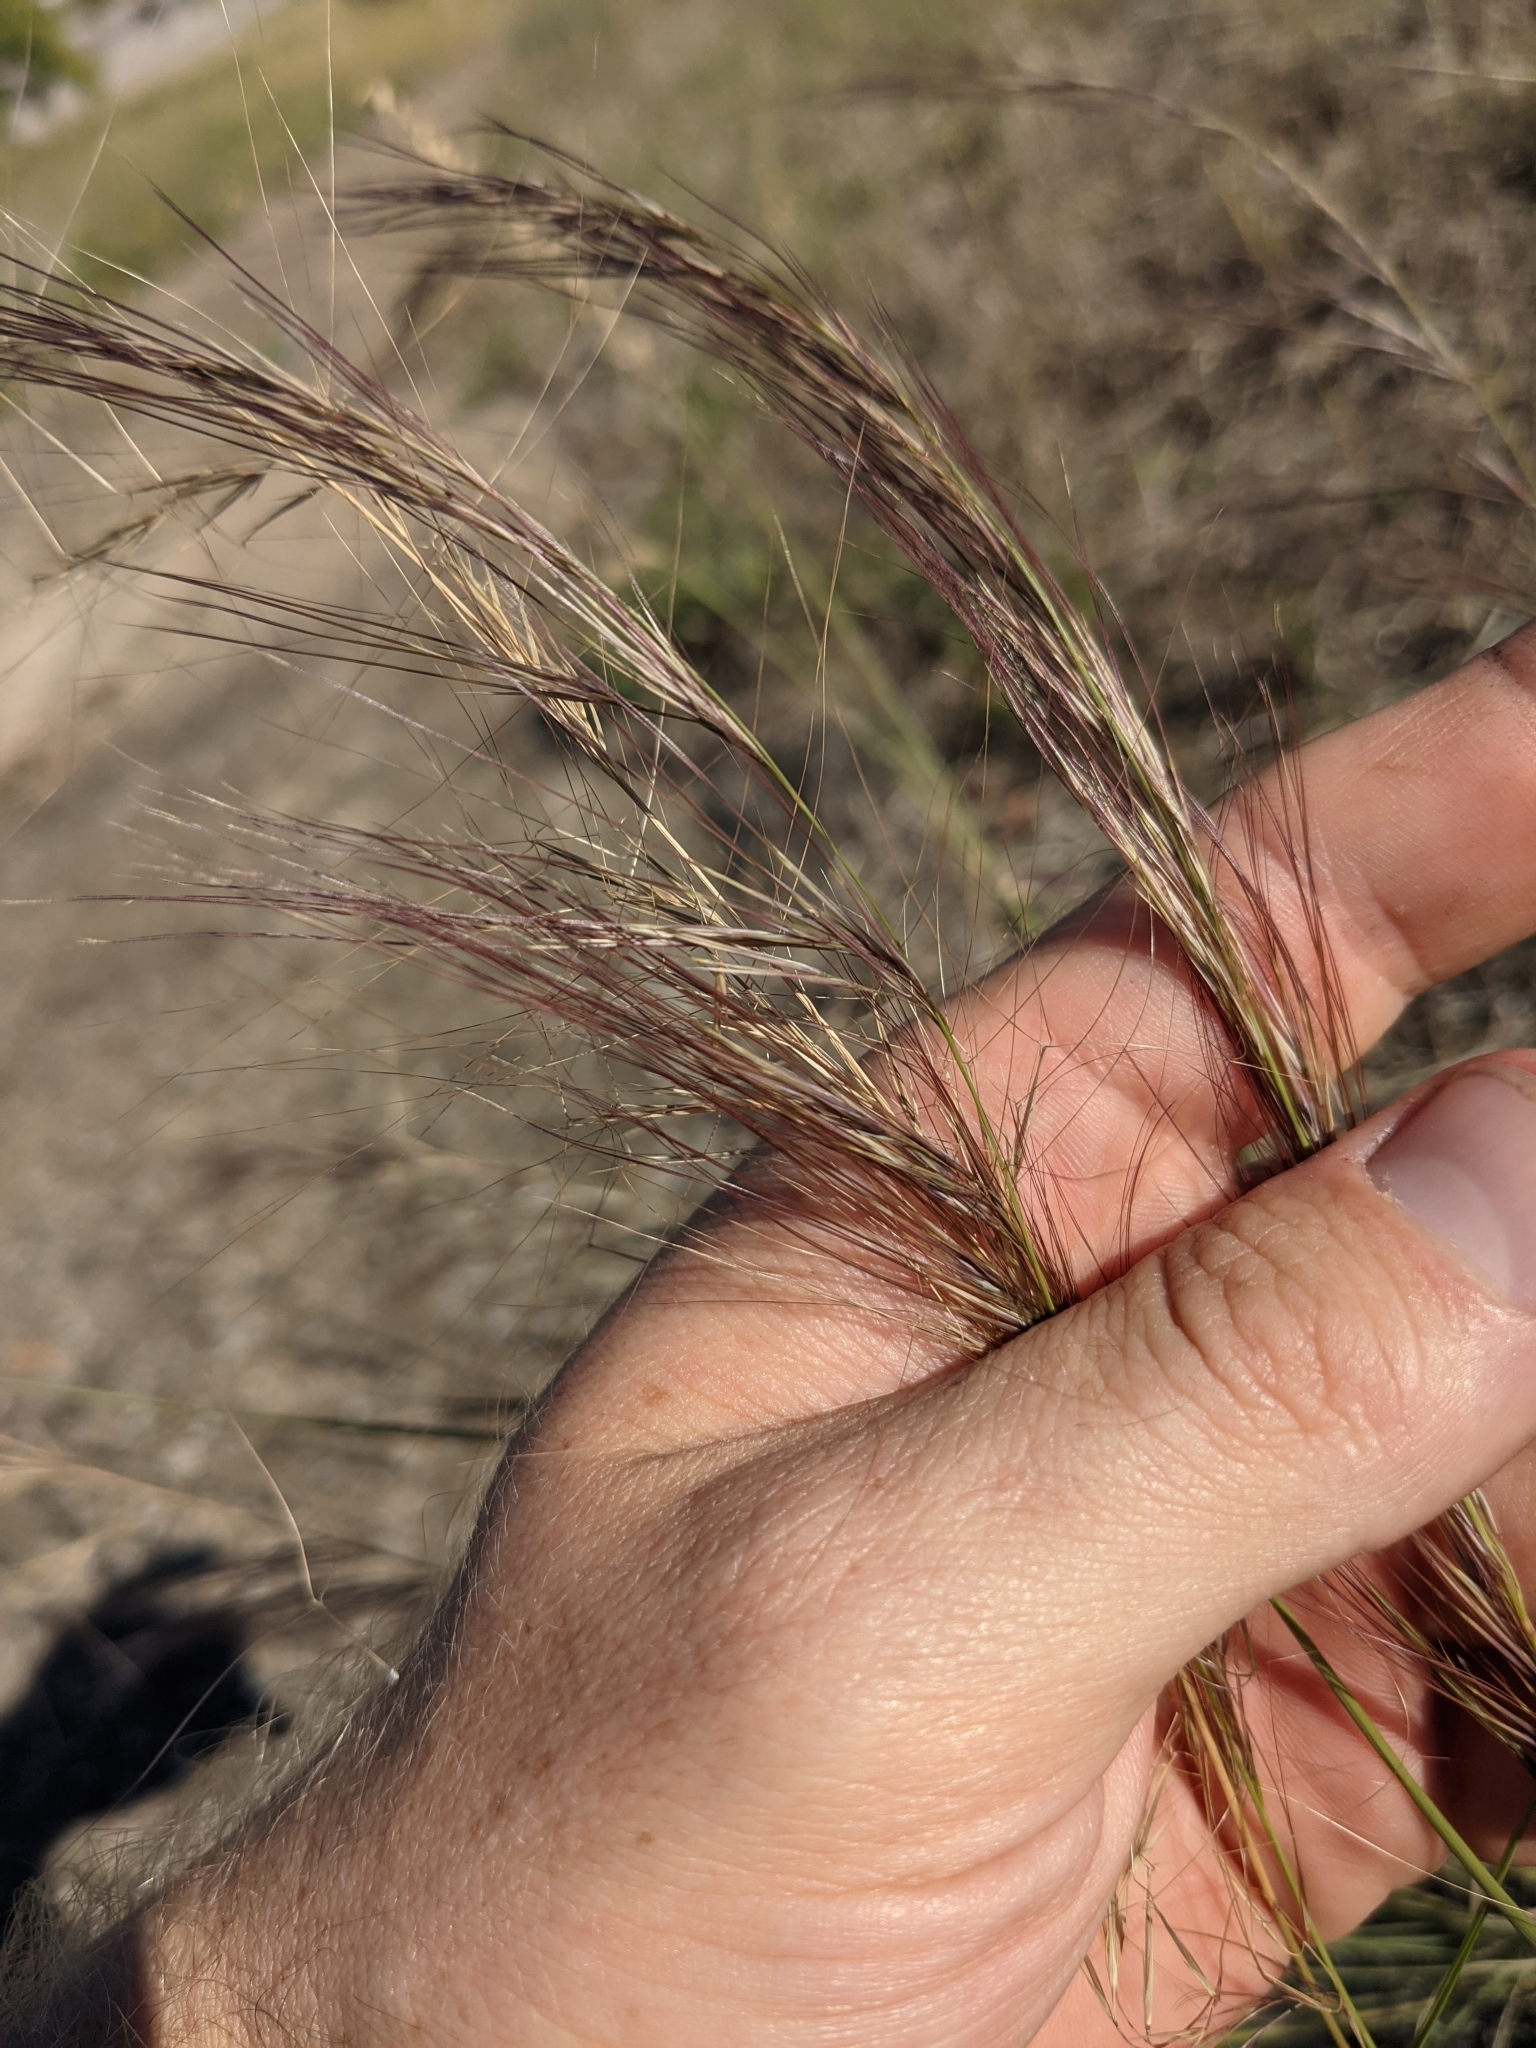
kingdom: Plantae
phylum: Tracheophyta
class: Liliopsida
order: Poales
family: Poaceae
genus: Aristida
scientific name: Aristida purpurea
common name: Purple threeawn
